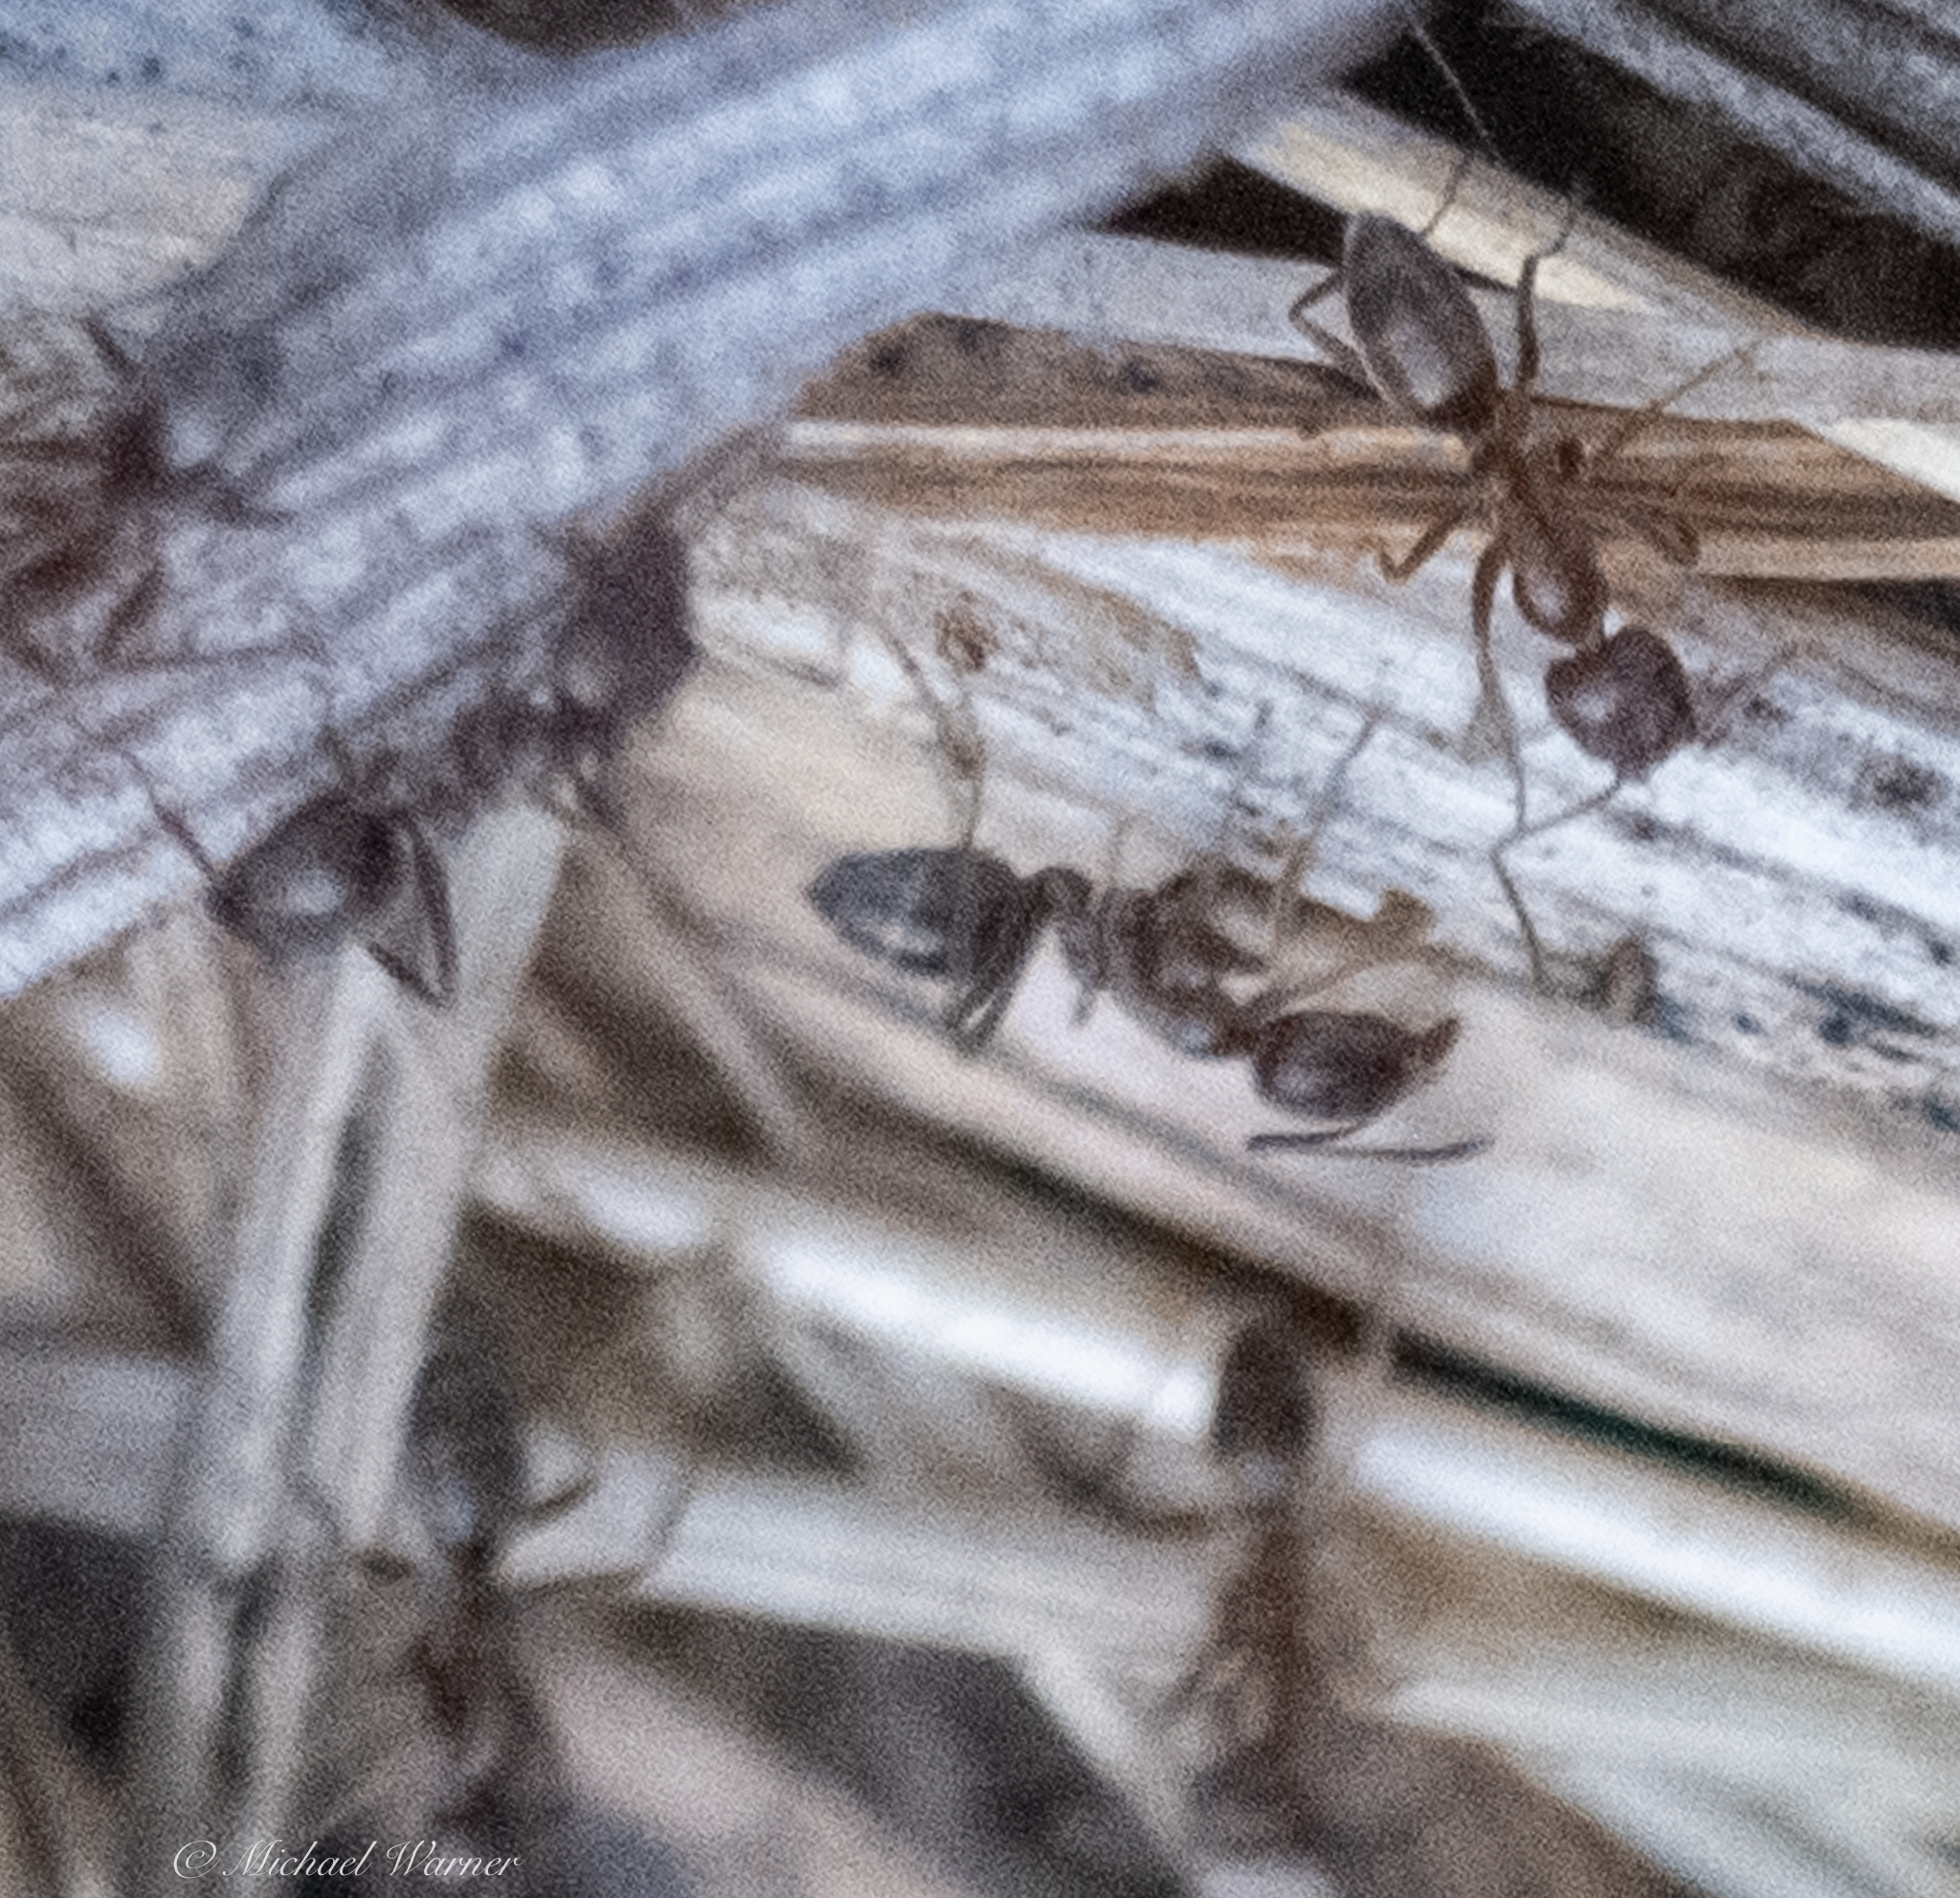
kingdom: Animalia
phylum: Arthropoda
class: Insecta
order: Hymenoptera
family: Formicidae
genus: Linepithema
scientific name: Linepithema humile
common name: Argentine ant
